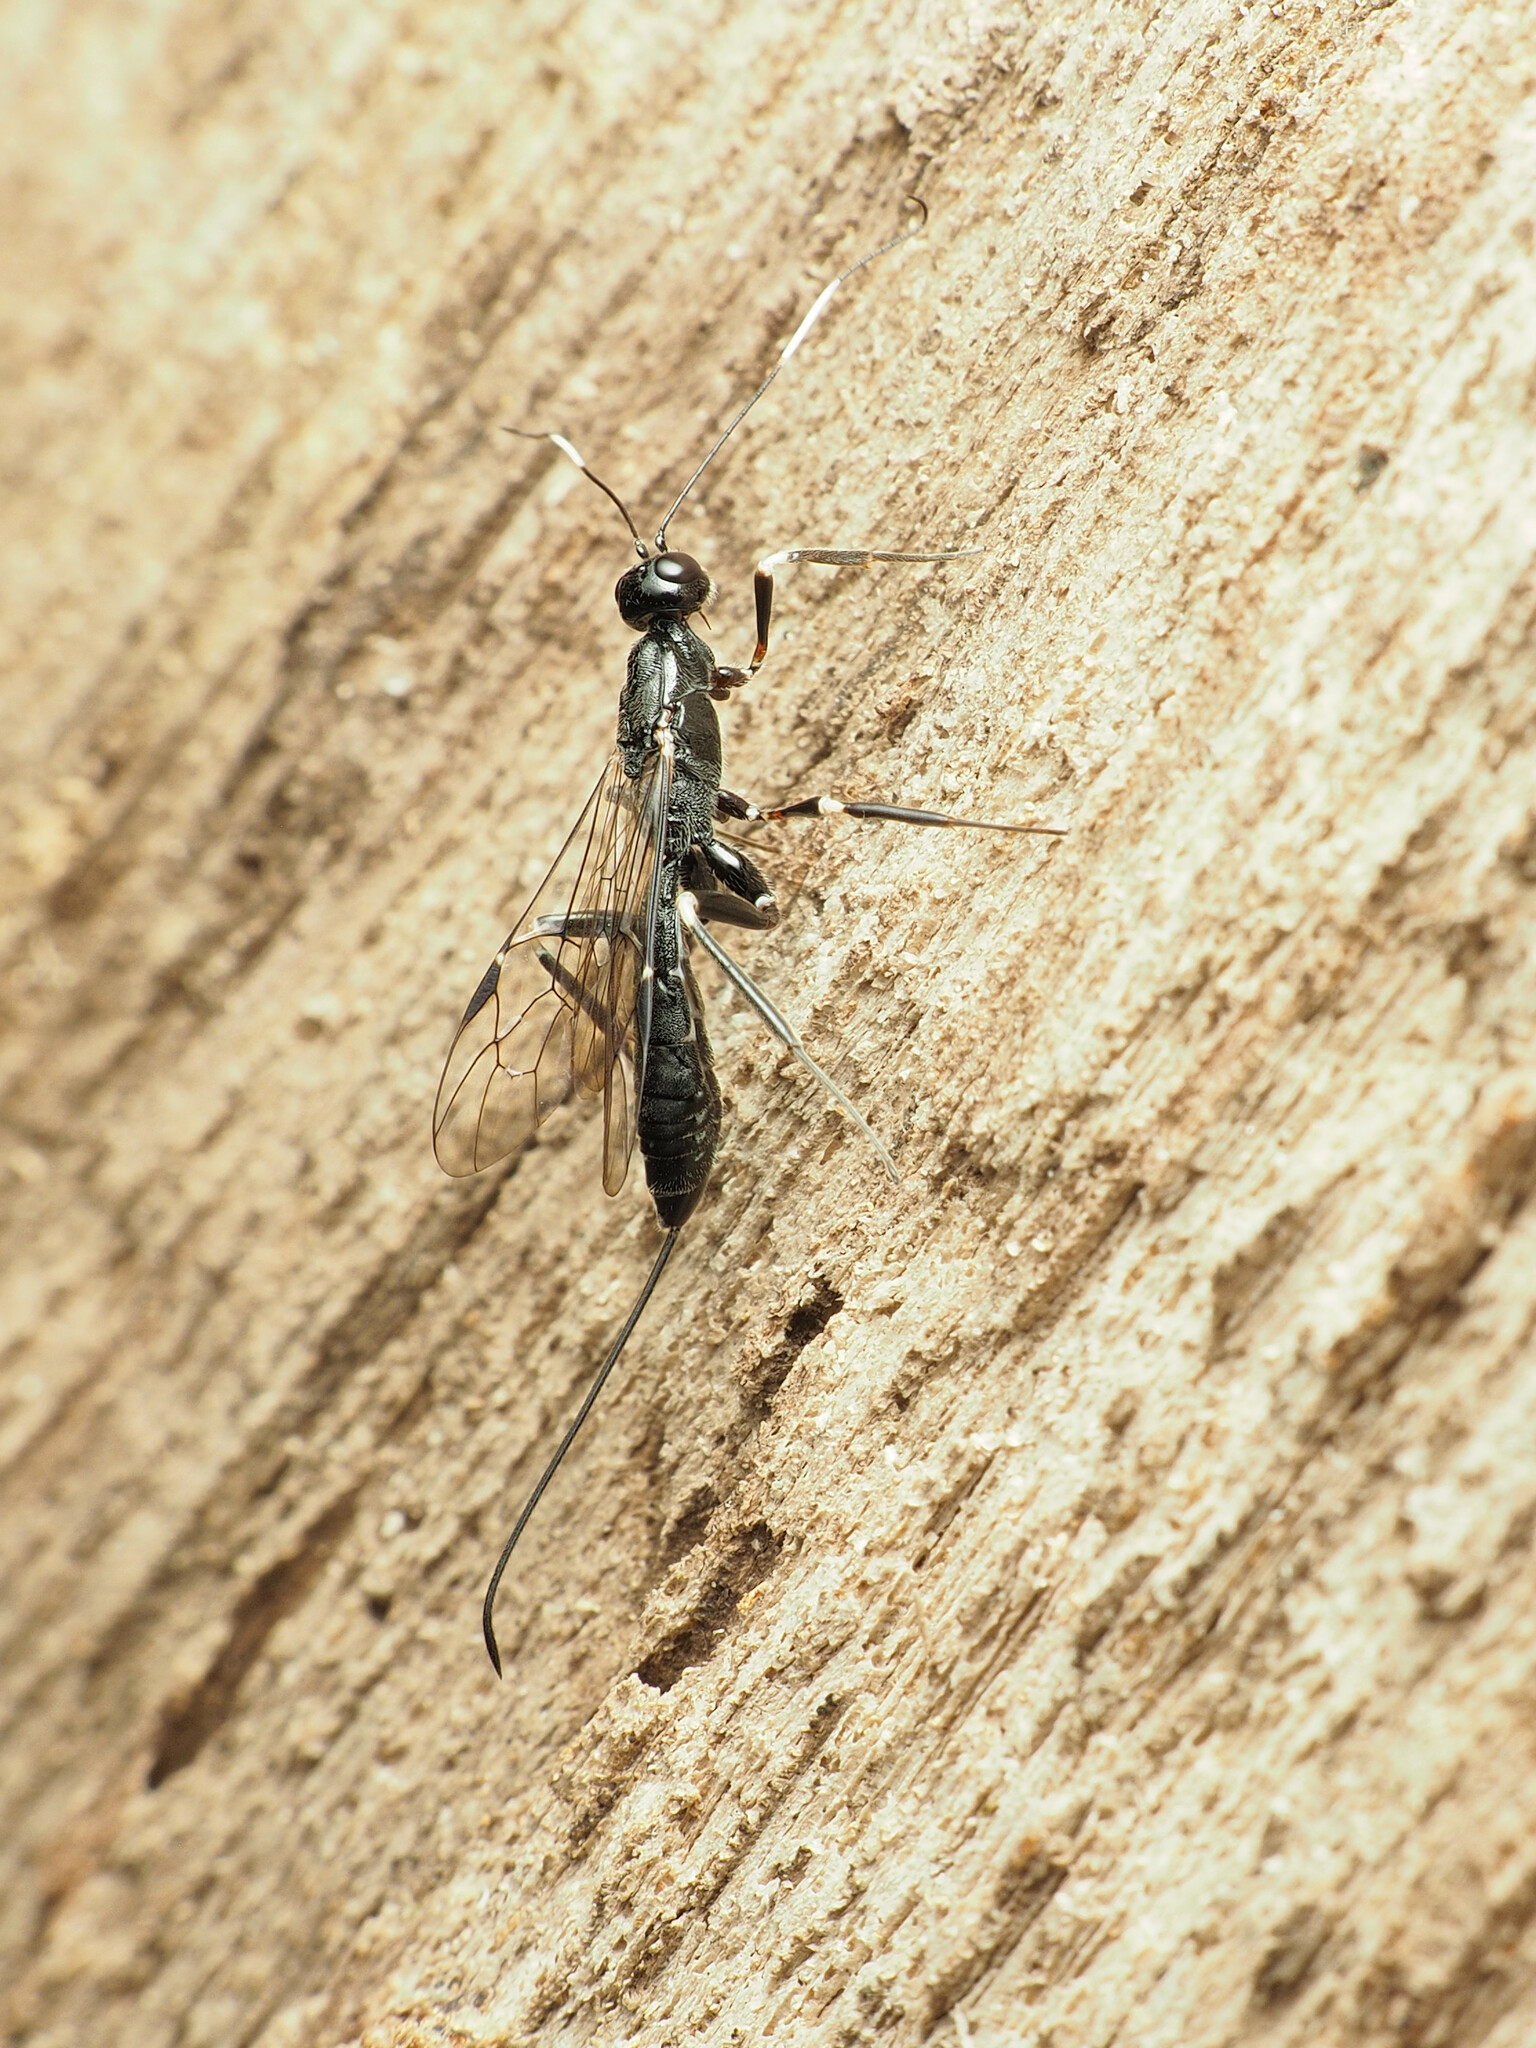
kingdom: Animalia
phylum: Arthropoda
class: Insecta
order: Hymenoptera
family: Ichneumonidae
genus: Xorides
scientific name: Xorides humeralis
